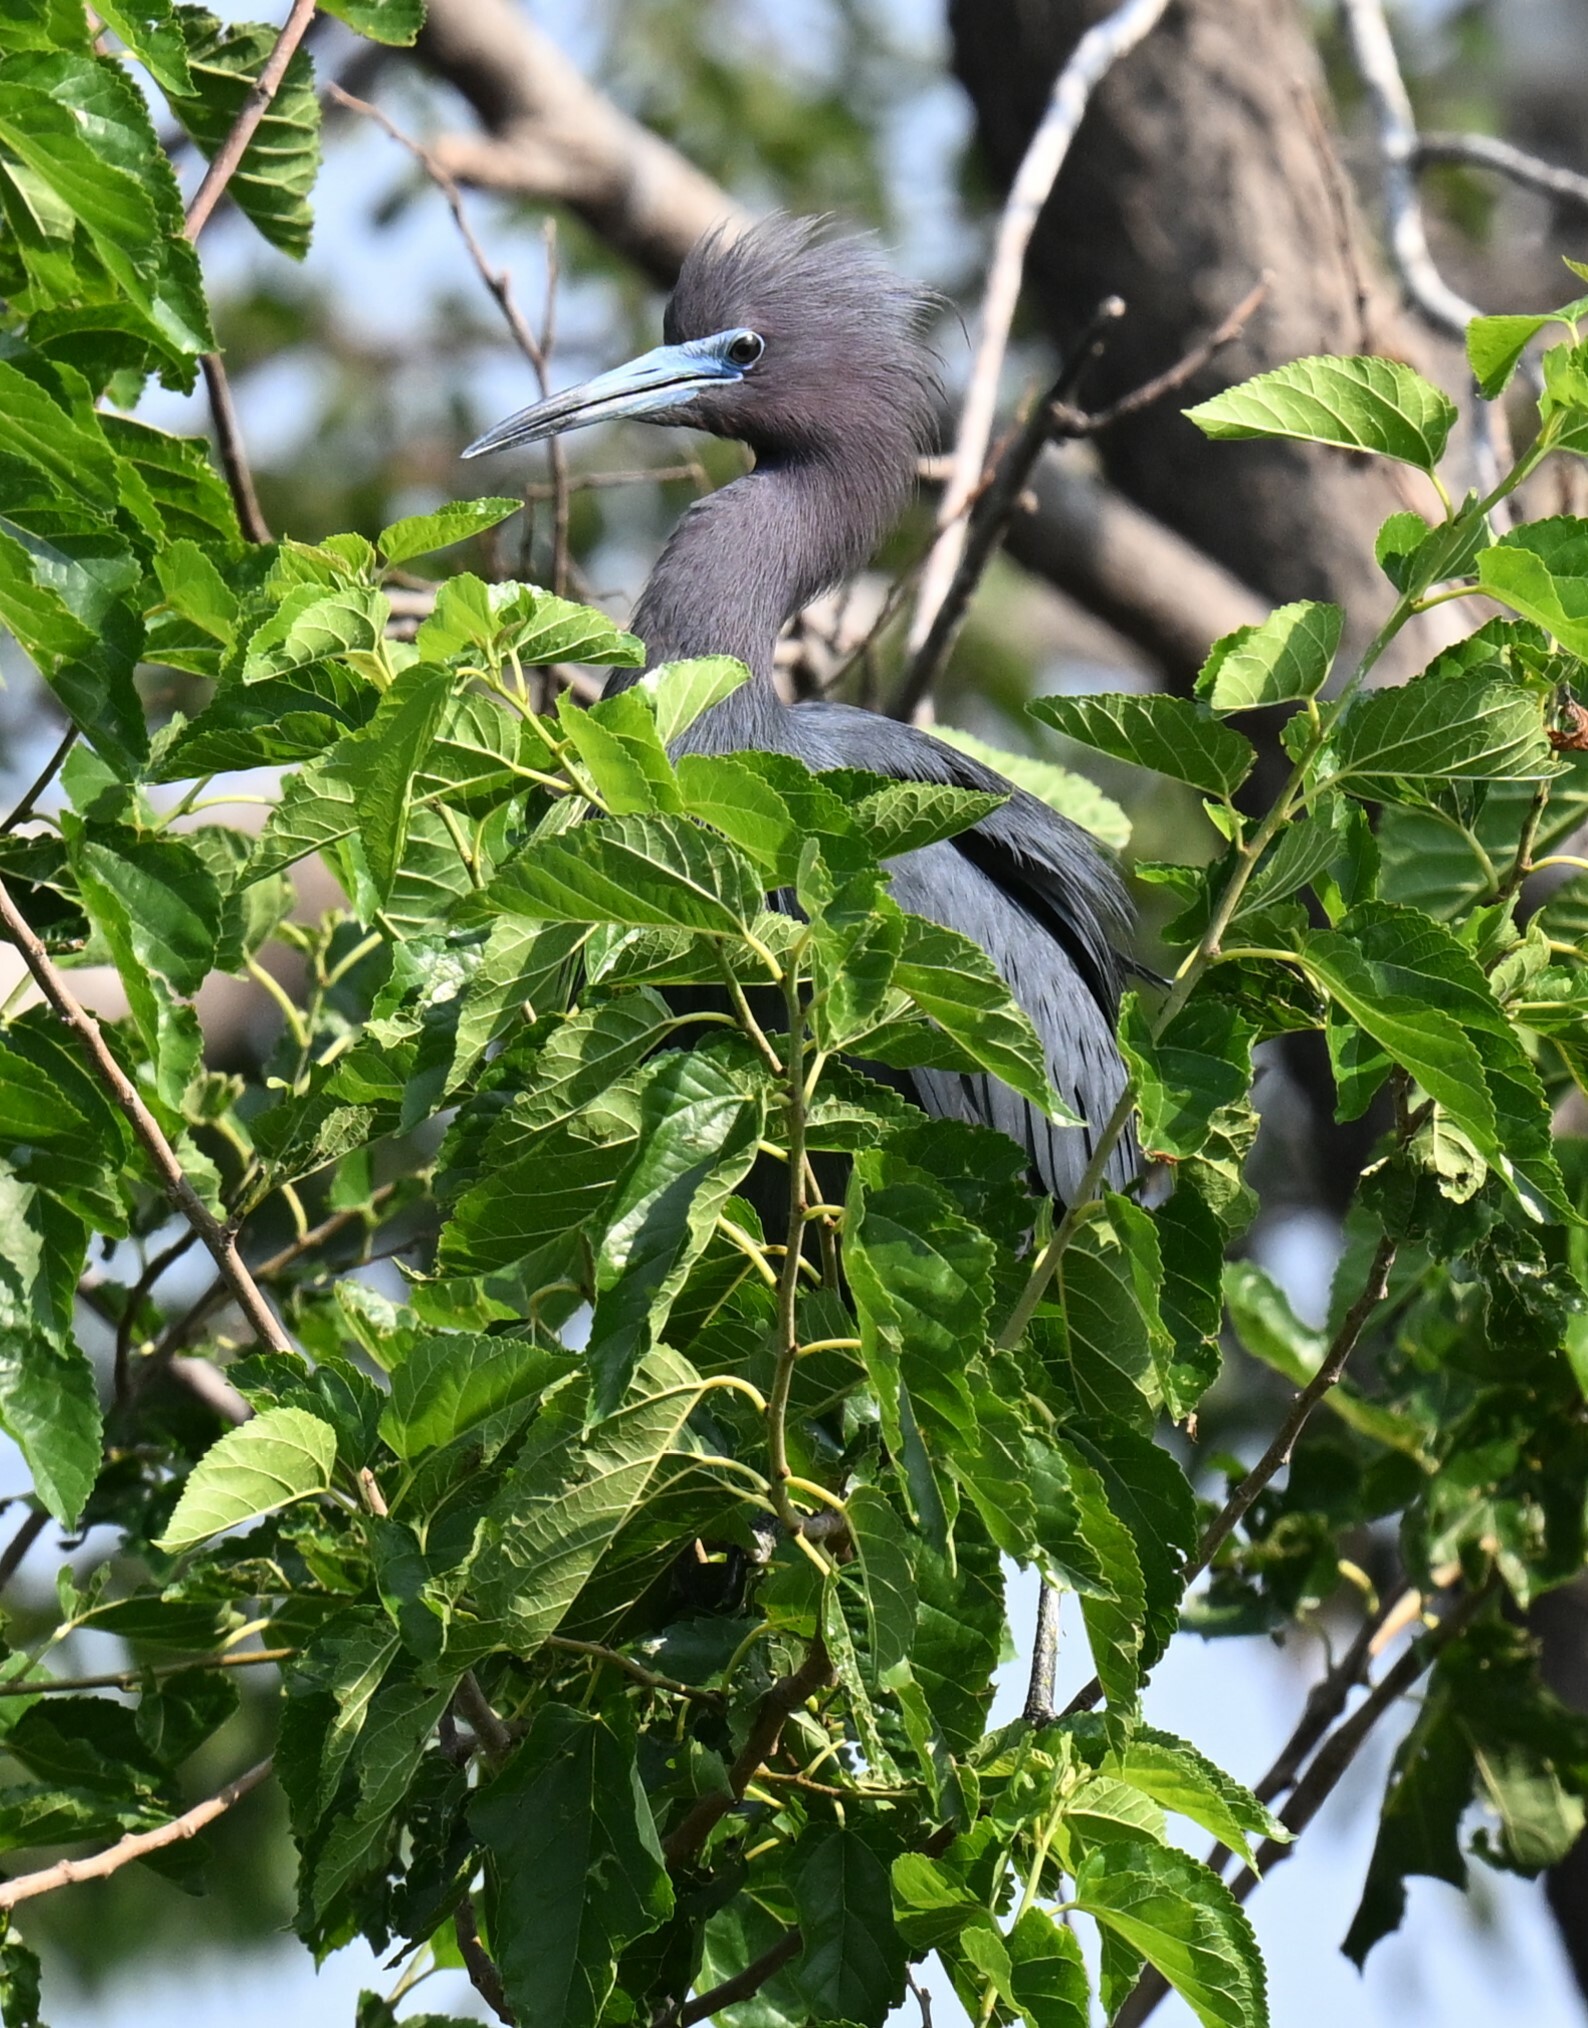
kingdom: Animalia
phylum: Chordata
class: Aves
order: Pelecaniformes
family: Ardeidae
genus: Egretta
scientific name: Egretta caerulea
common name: Little blue heron
